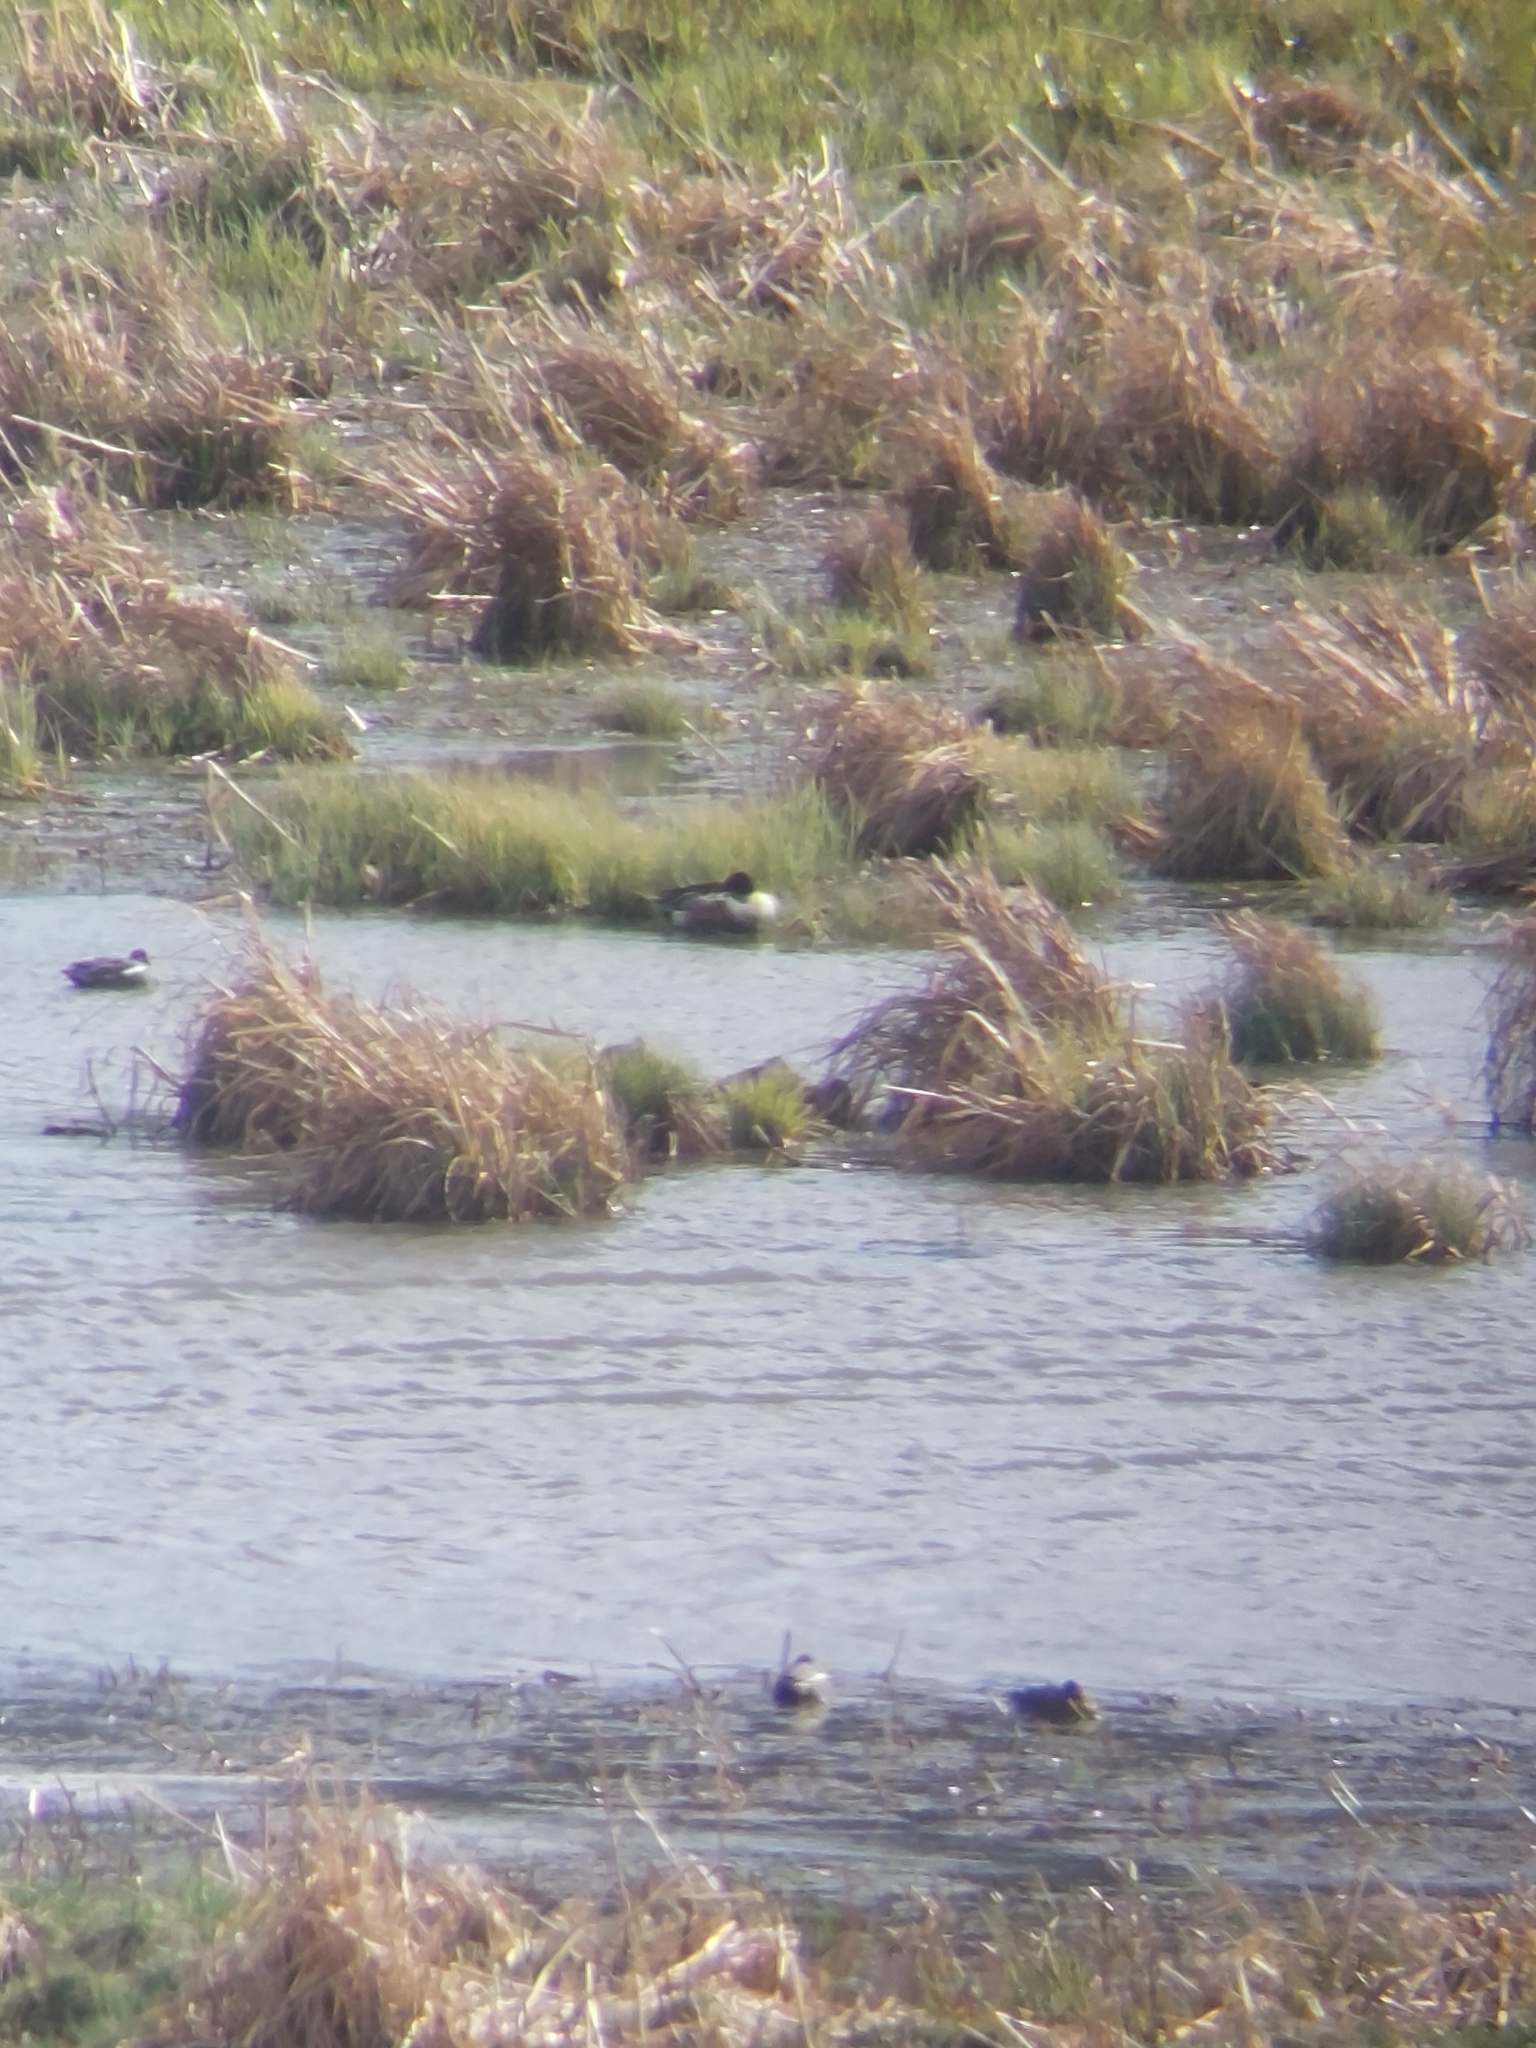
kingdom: Animalia
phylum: Chordata
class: Aves
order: Anseriformes
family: Anatidae
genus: Spatula
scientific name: Spatula clypeata
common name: Northern shoveler
